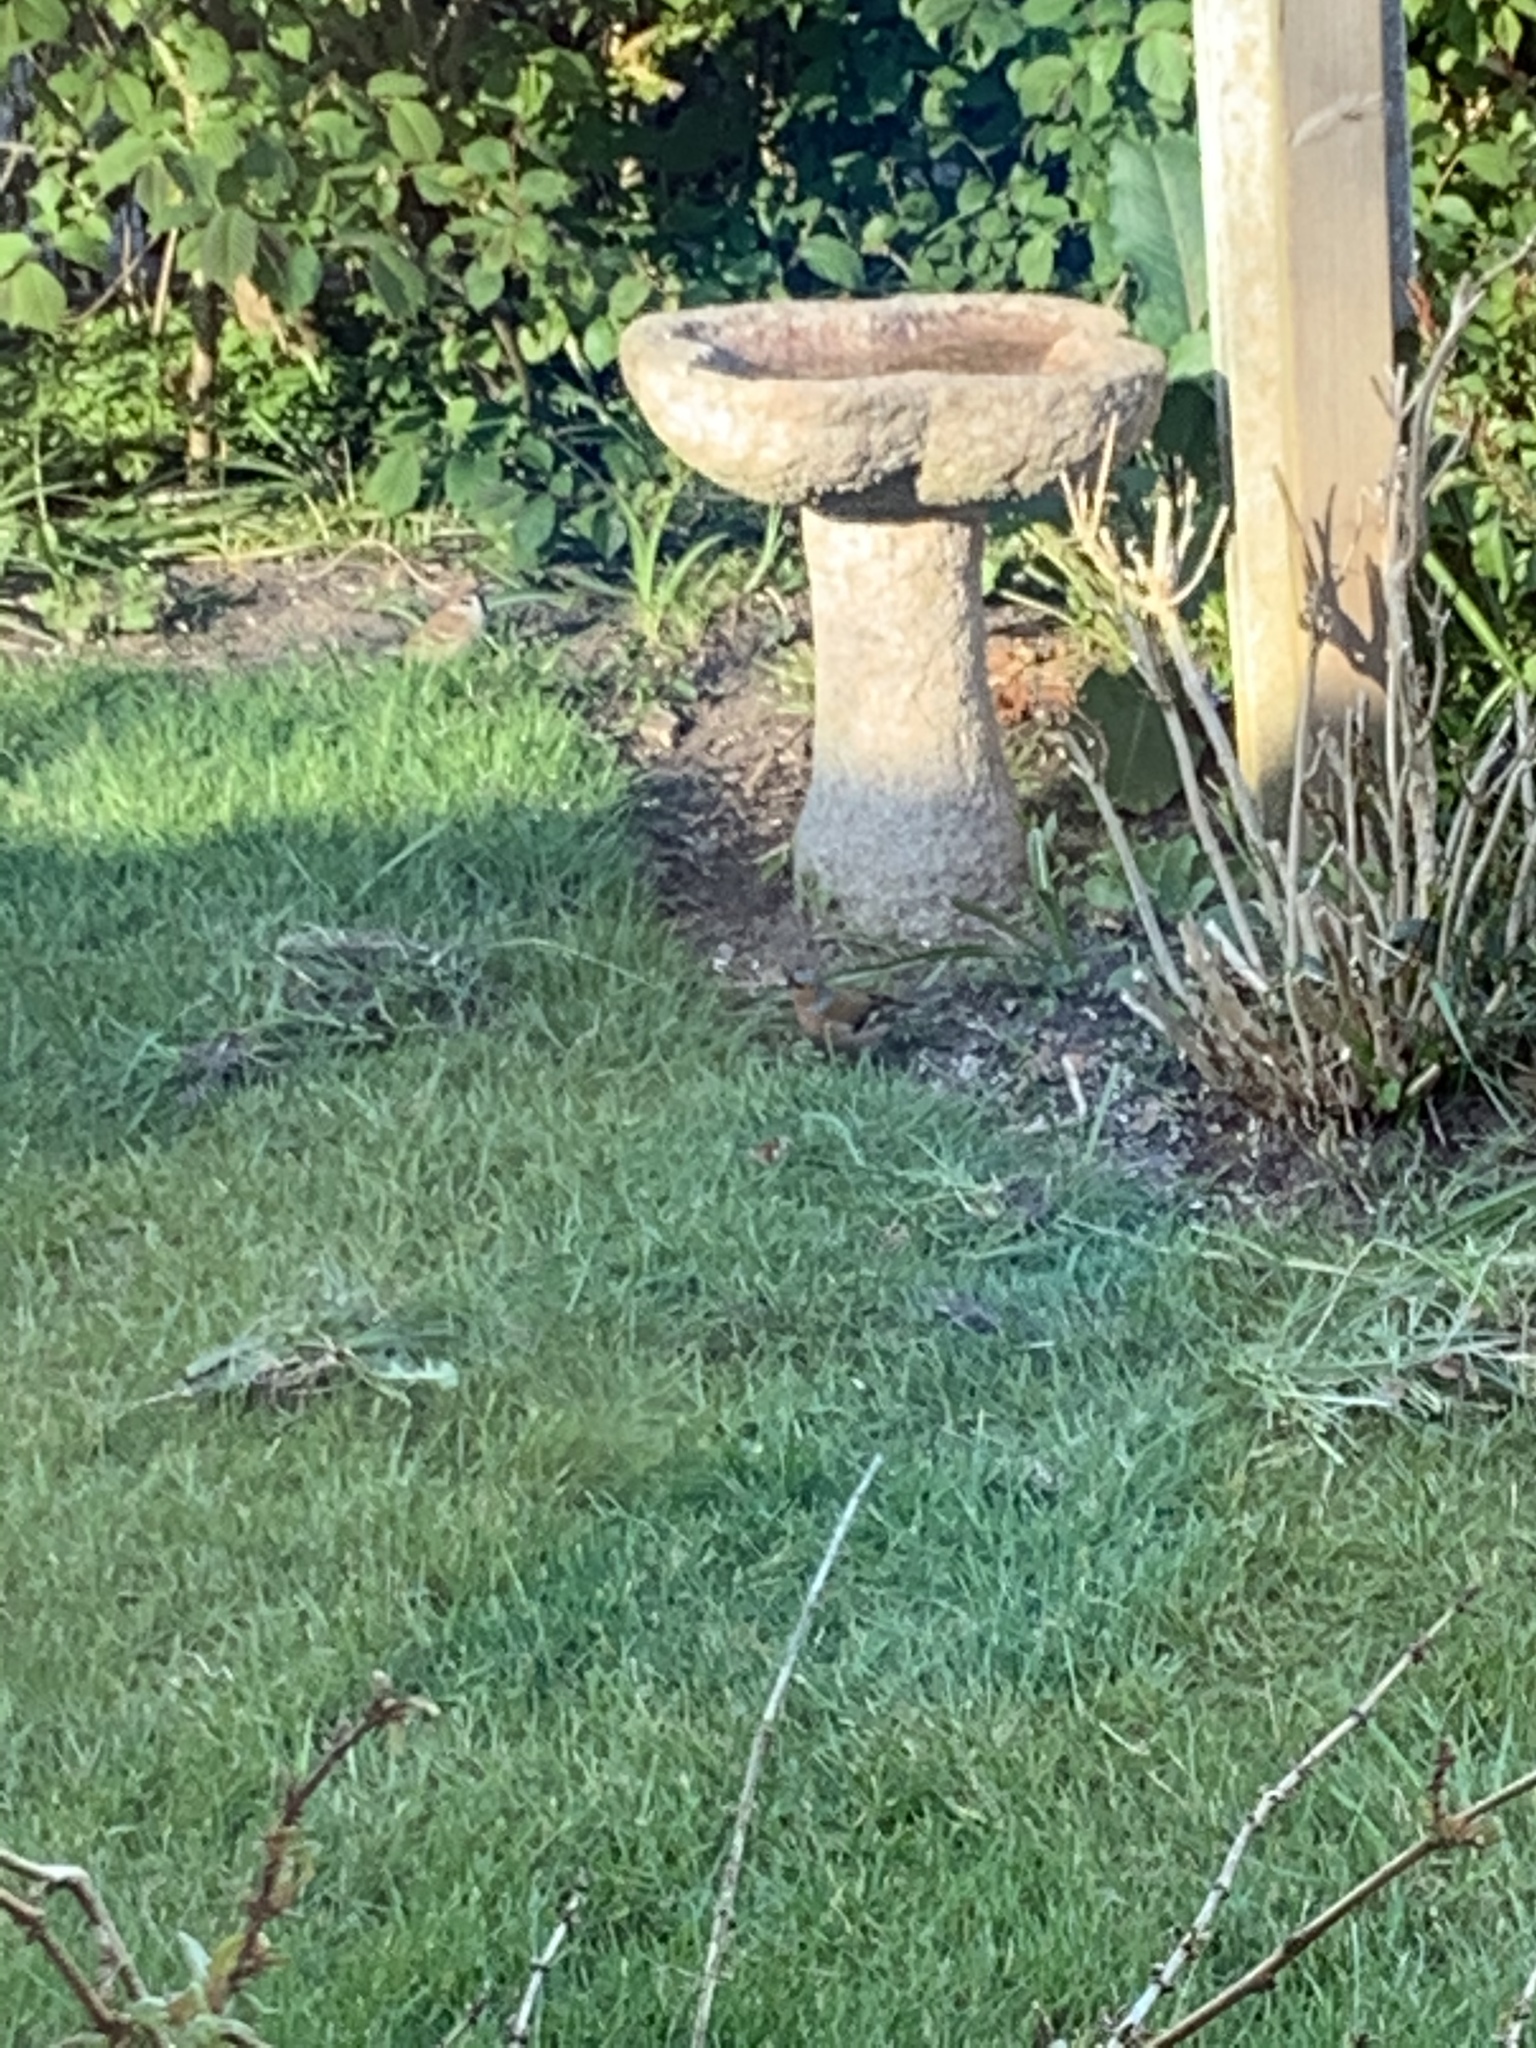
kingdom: Animalia
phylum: Chordata
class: Aves
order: Passeriformes
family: Fringillidae
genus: Fringilla
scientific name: Fringilla coelebs
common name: Common chaffinch
